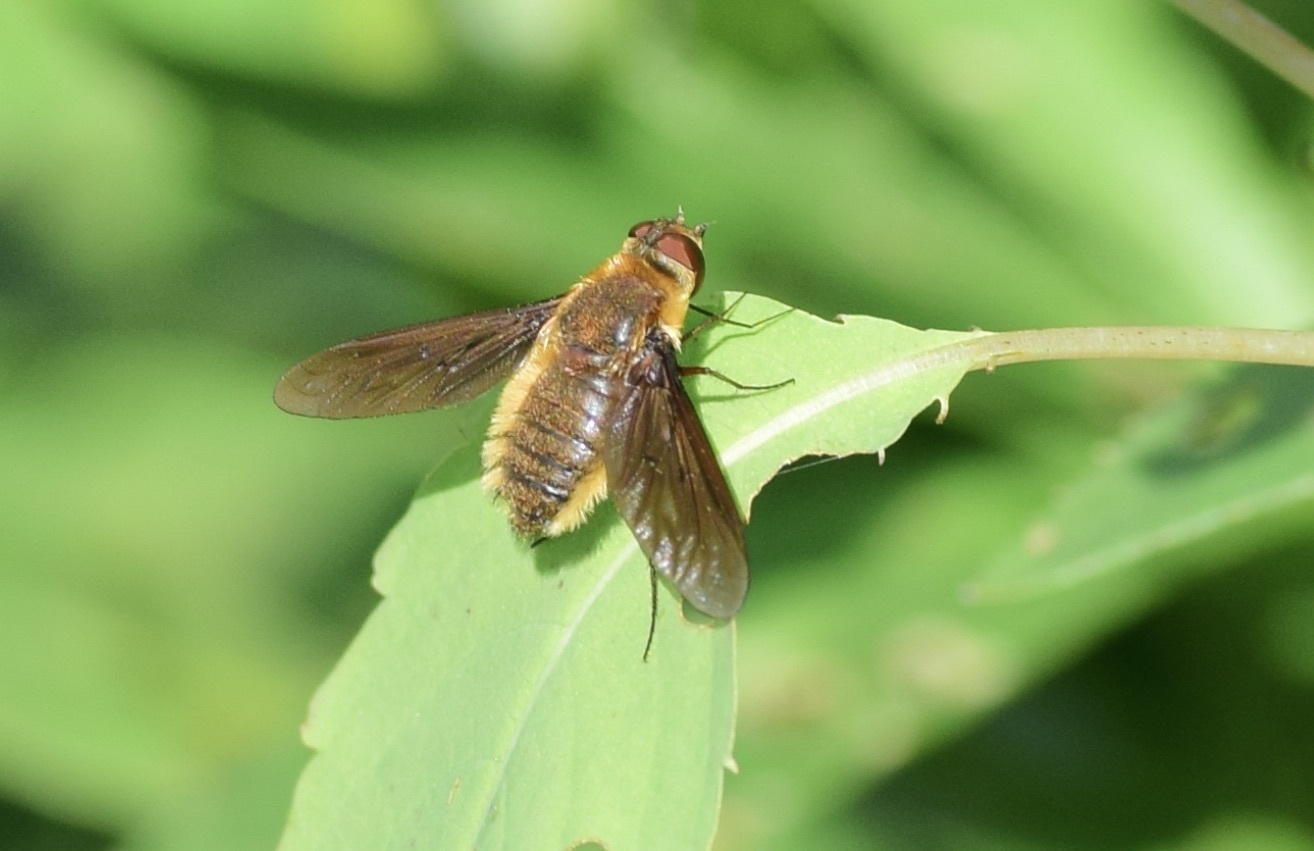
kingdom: Animalia
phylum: Arthropoda
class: Insecta
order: Diptera
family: Bombyliidae
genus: Poecilanthrax
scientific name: Poecilanthrax tegminipennis
